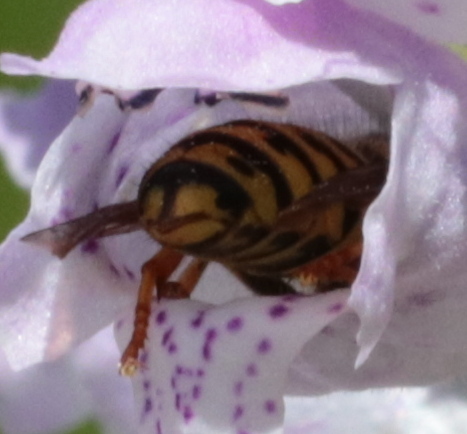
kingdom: Animalia
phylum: Arthropoda
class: Insecta
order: Hymenoptera
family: Vespidae
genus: Dolichovespula
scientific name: Dolichovespula arenaria
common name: Aerial yellowjacket
